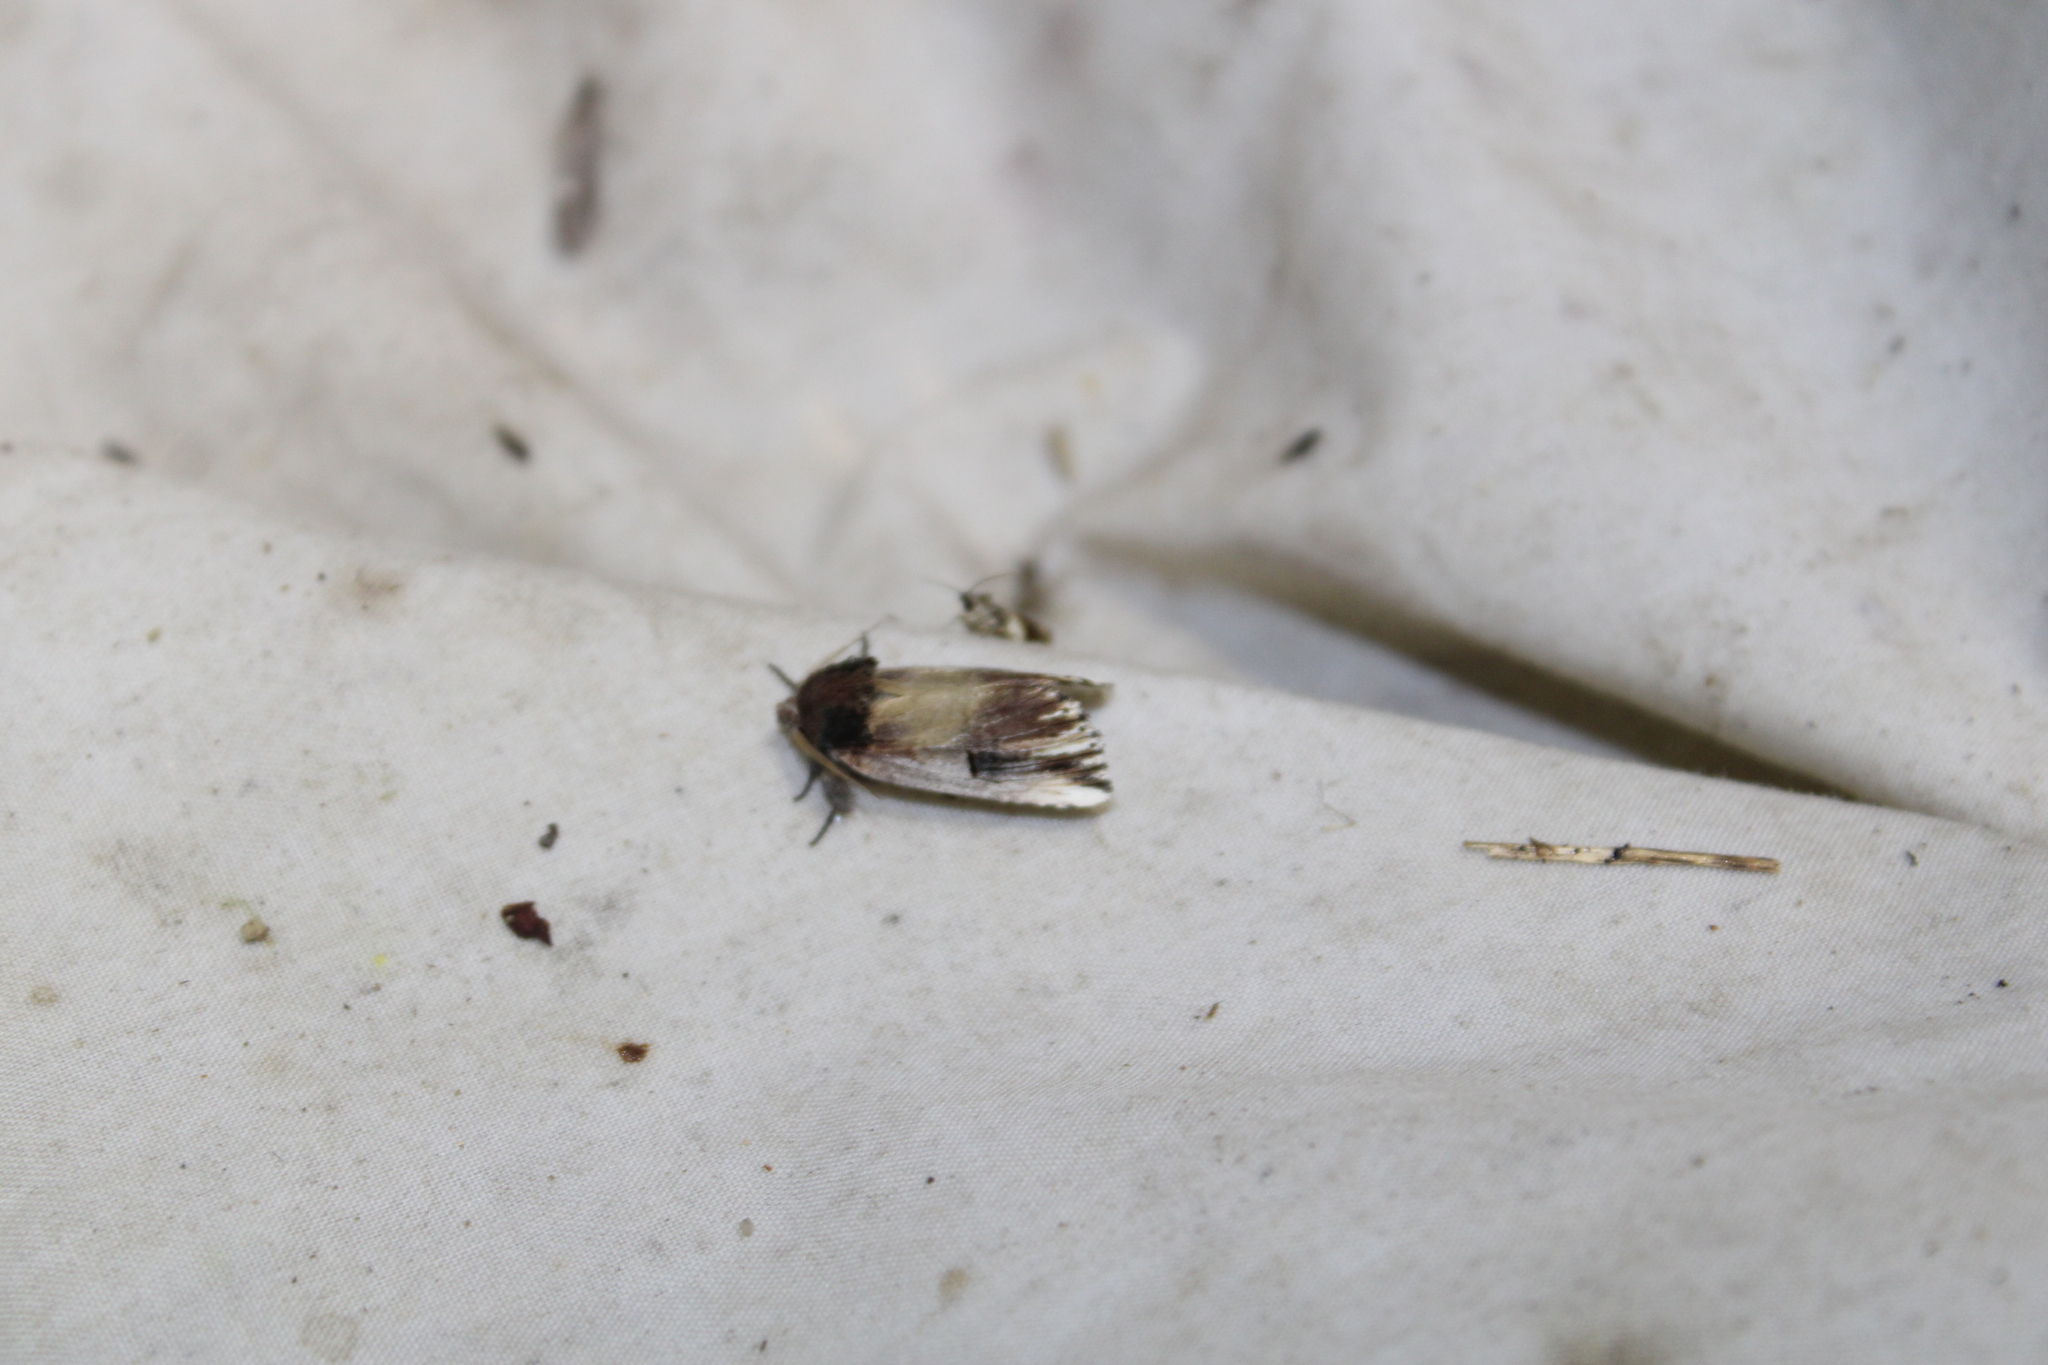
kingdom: Animalia
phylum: Arthropoda
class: Insecta
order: Lepidoptera
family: Notodontidae
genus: Schizura
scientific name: Schizura badia
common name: Chestnut schizura
